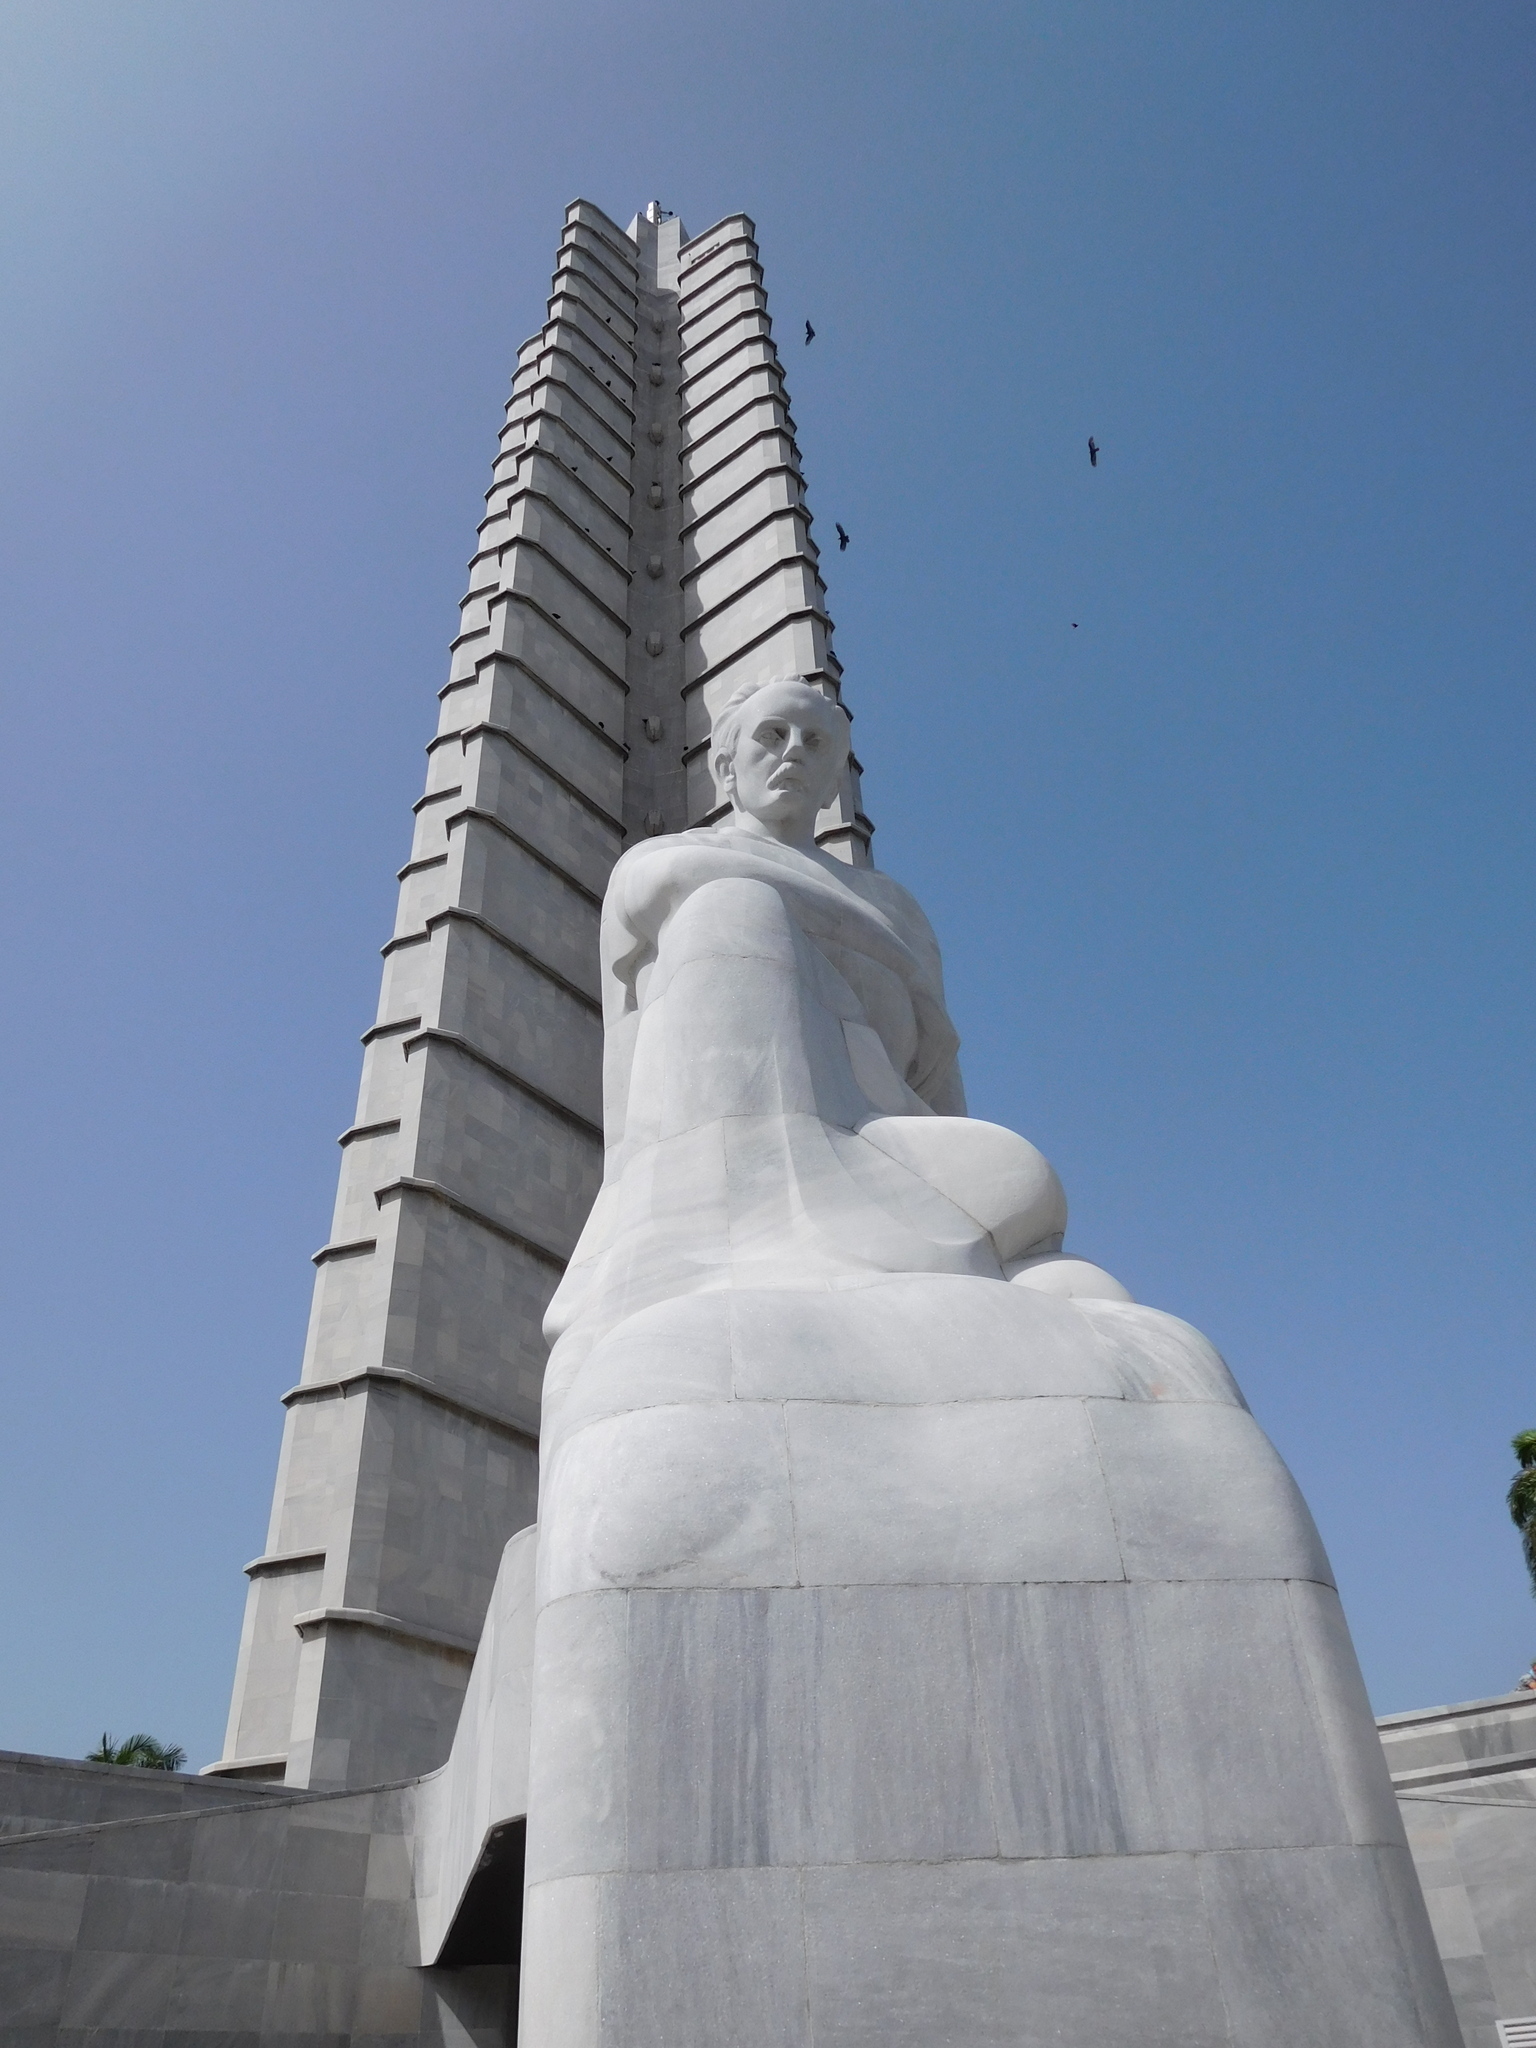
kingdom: Animalia
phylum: Chordata
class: Aves
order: Accipitriformes
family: Cathartidae
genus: Cathartes
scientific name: Cathartes aura
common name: Turkey vulture
